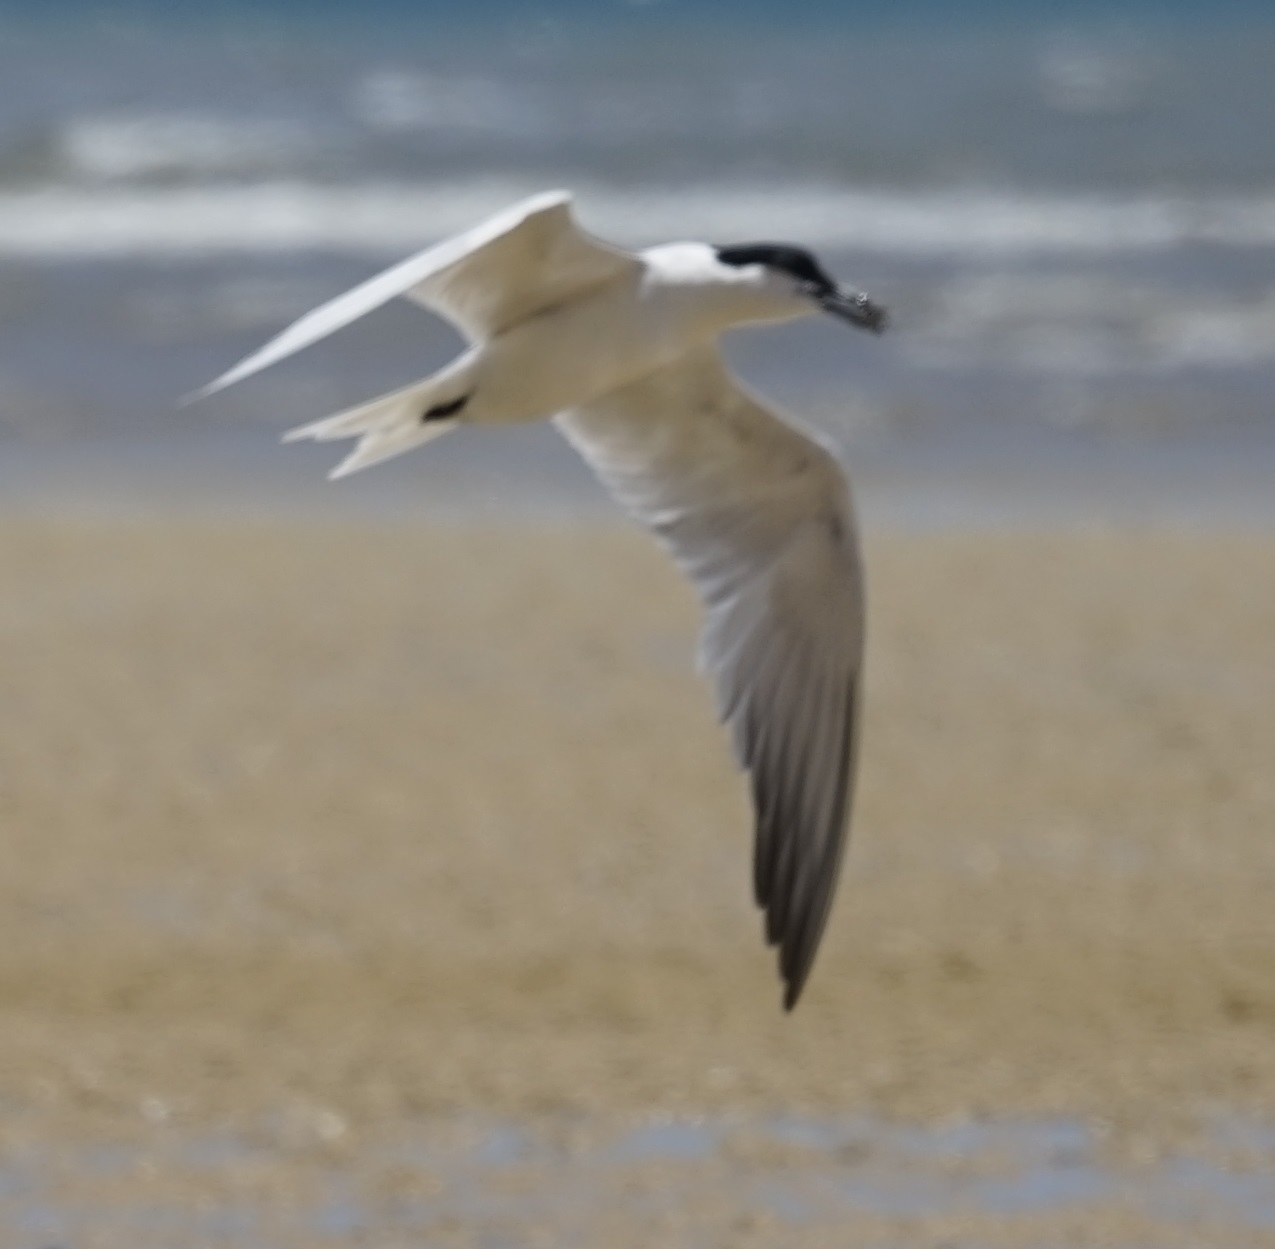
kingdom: Animalia
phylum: Chordata
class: Aves
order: Charadriiformes
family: Laridae
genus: Gelochelidon
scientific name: Gelochelidon macrotarsa
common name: Australian tern
